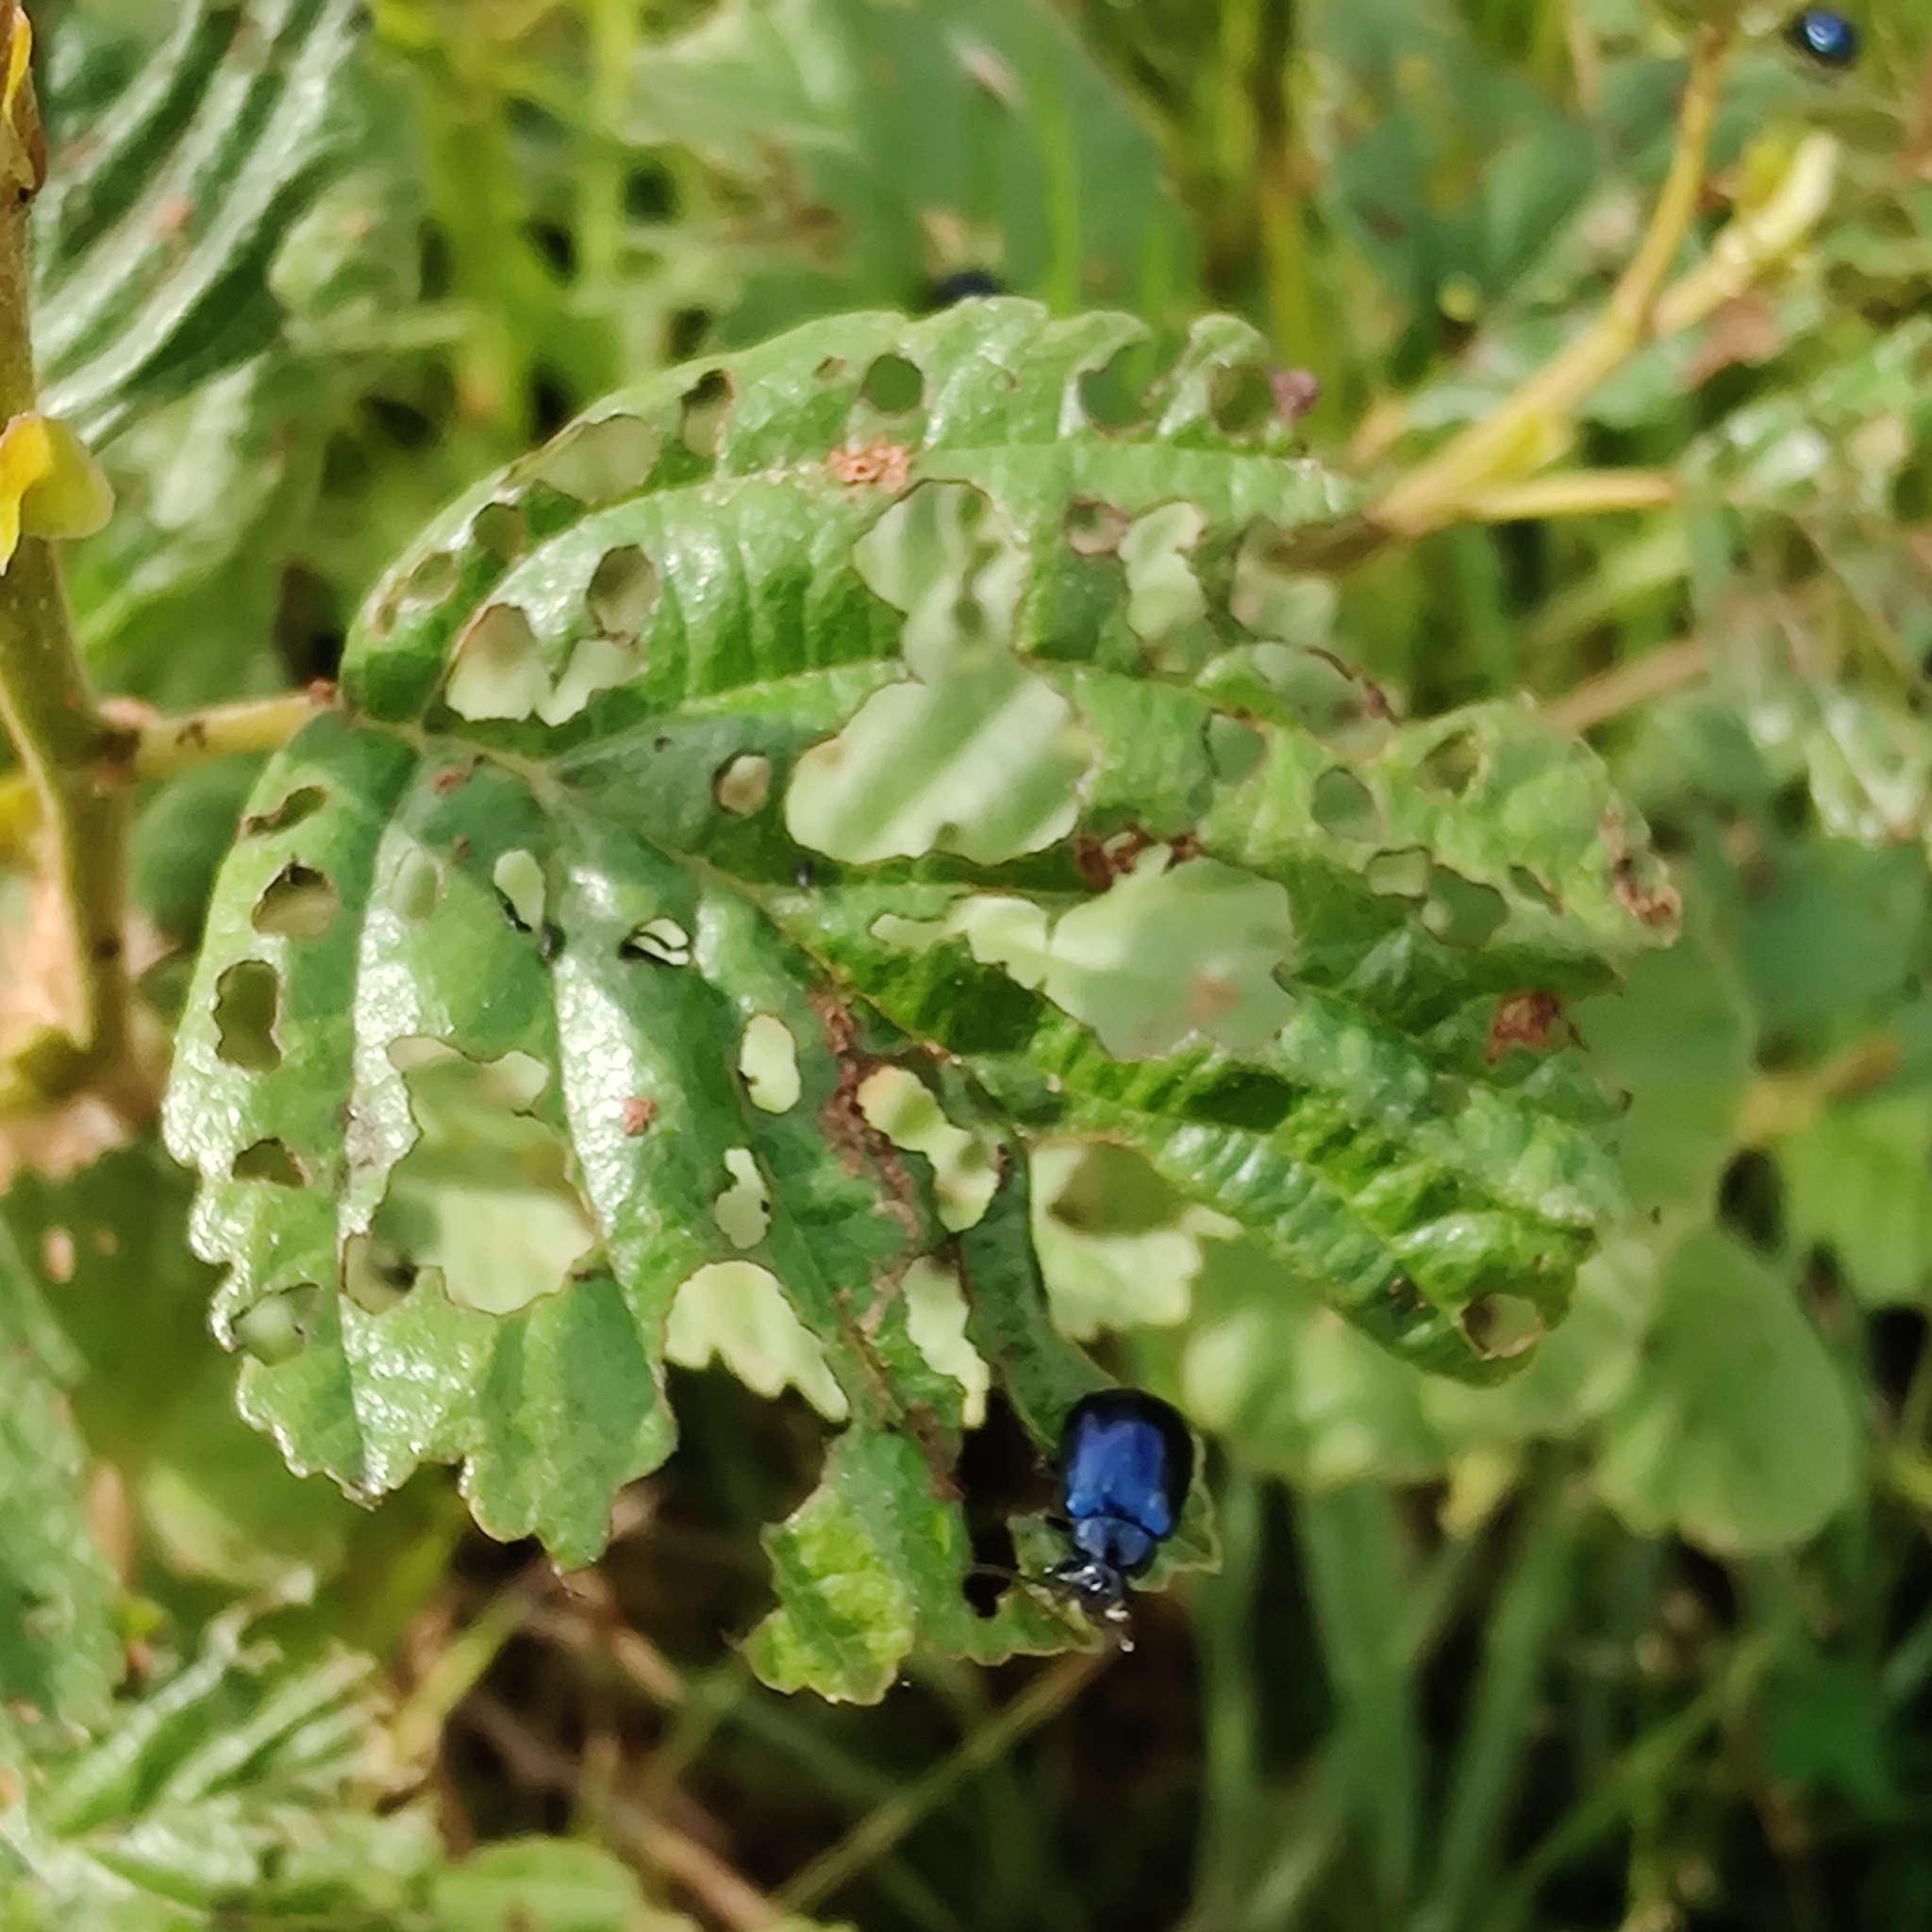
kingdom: Animalia
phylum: Arthropoda
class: Insecta
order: Coleoptera
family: Chrysomelidae
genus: Agelastica
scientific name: Agelastica alni
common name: Alder leaf beetle
